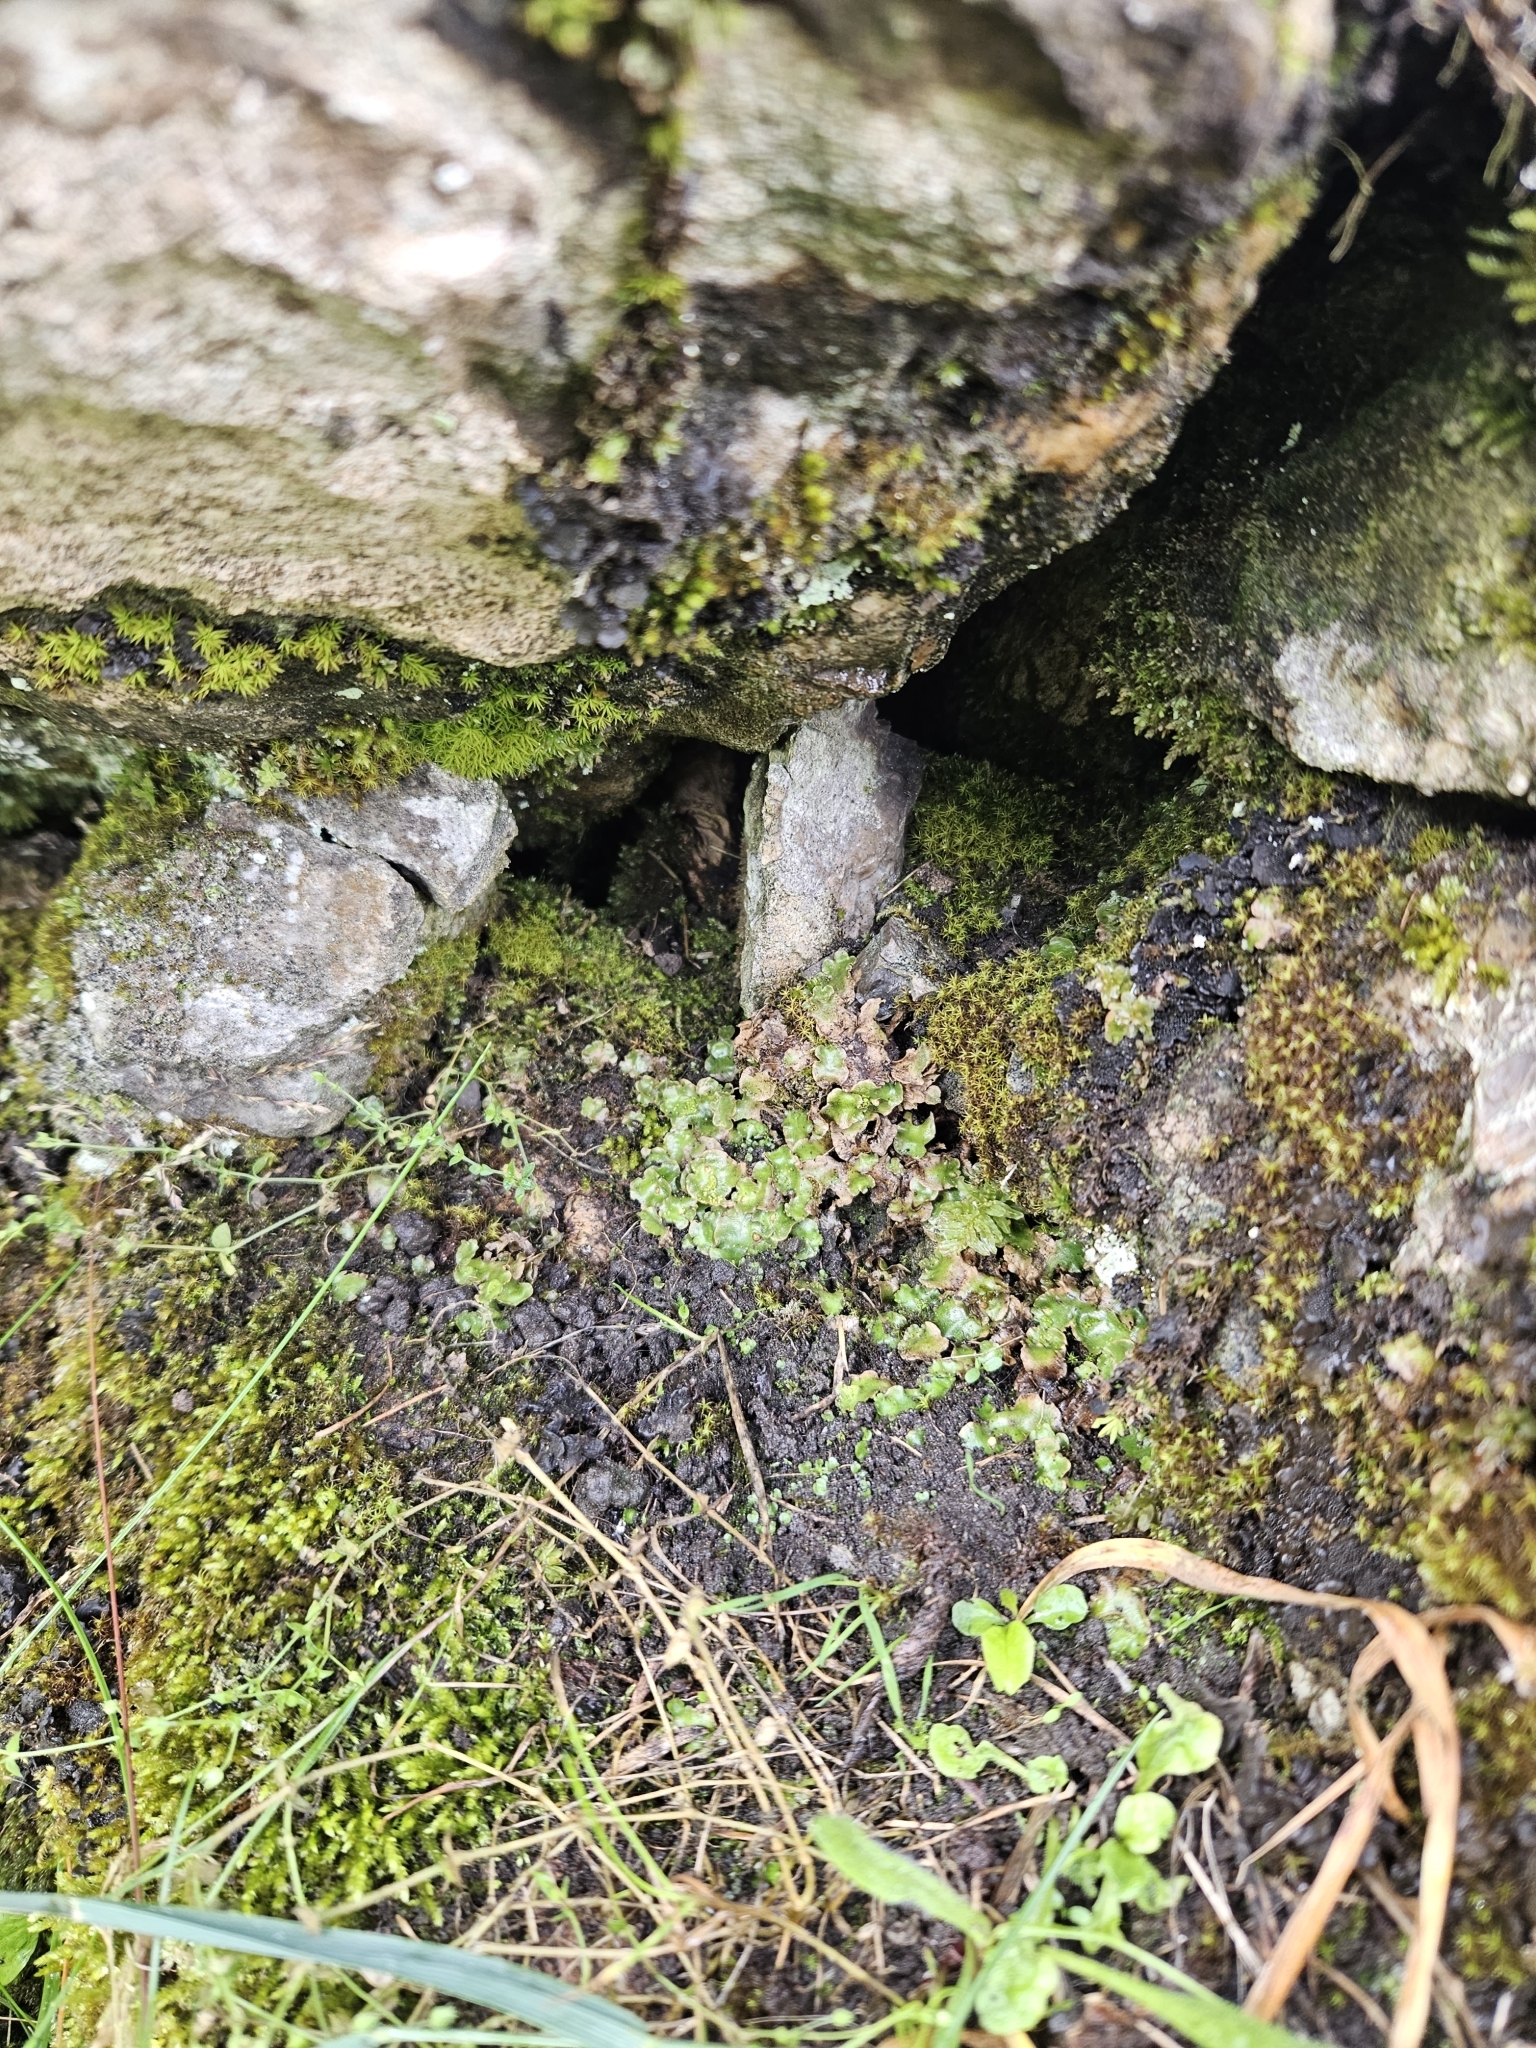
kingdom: Plantae
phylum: Marchantiophyta
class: Marchantiopsida
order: Lunulariales
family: Lunulariaceae
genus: Lunularia
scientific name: Lunularia cruciata
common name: Crescent-cup liverwort
